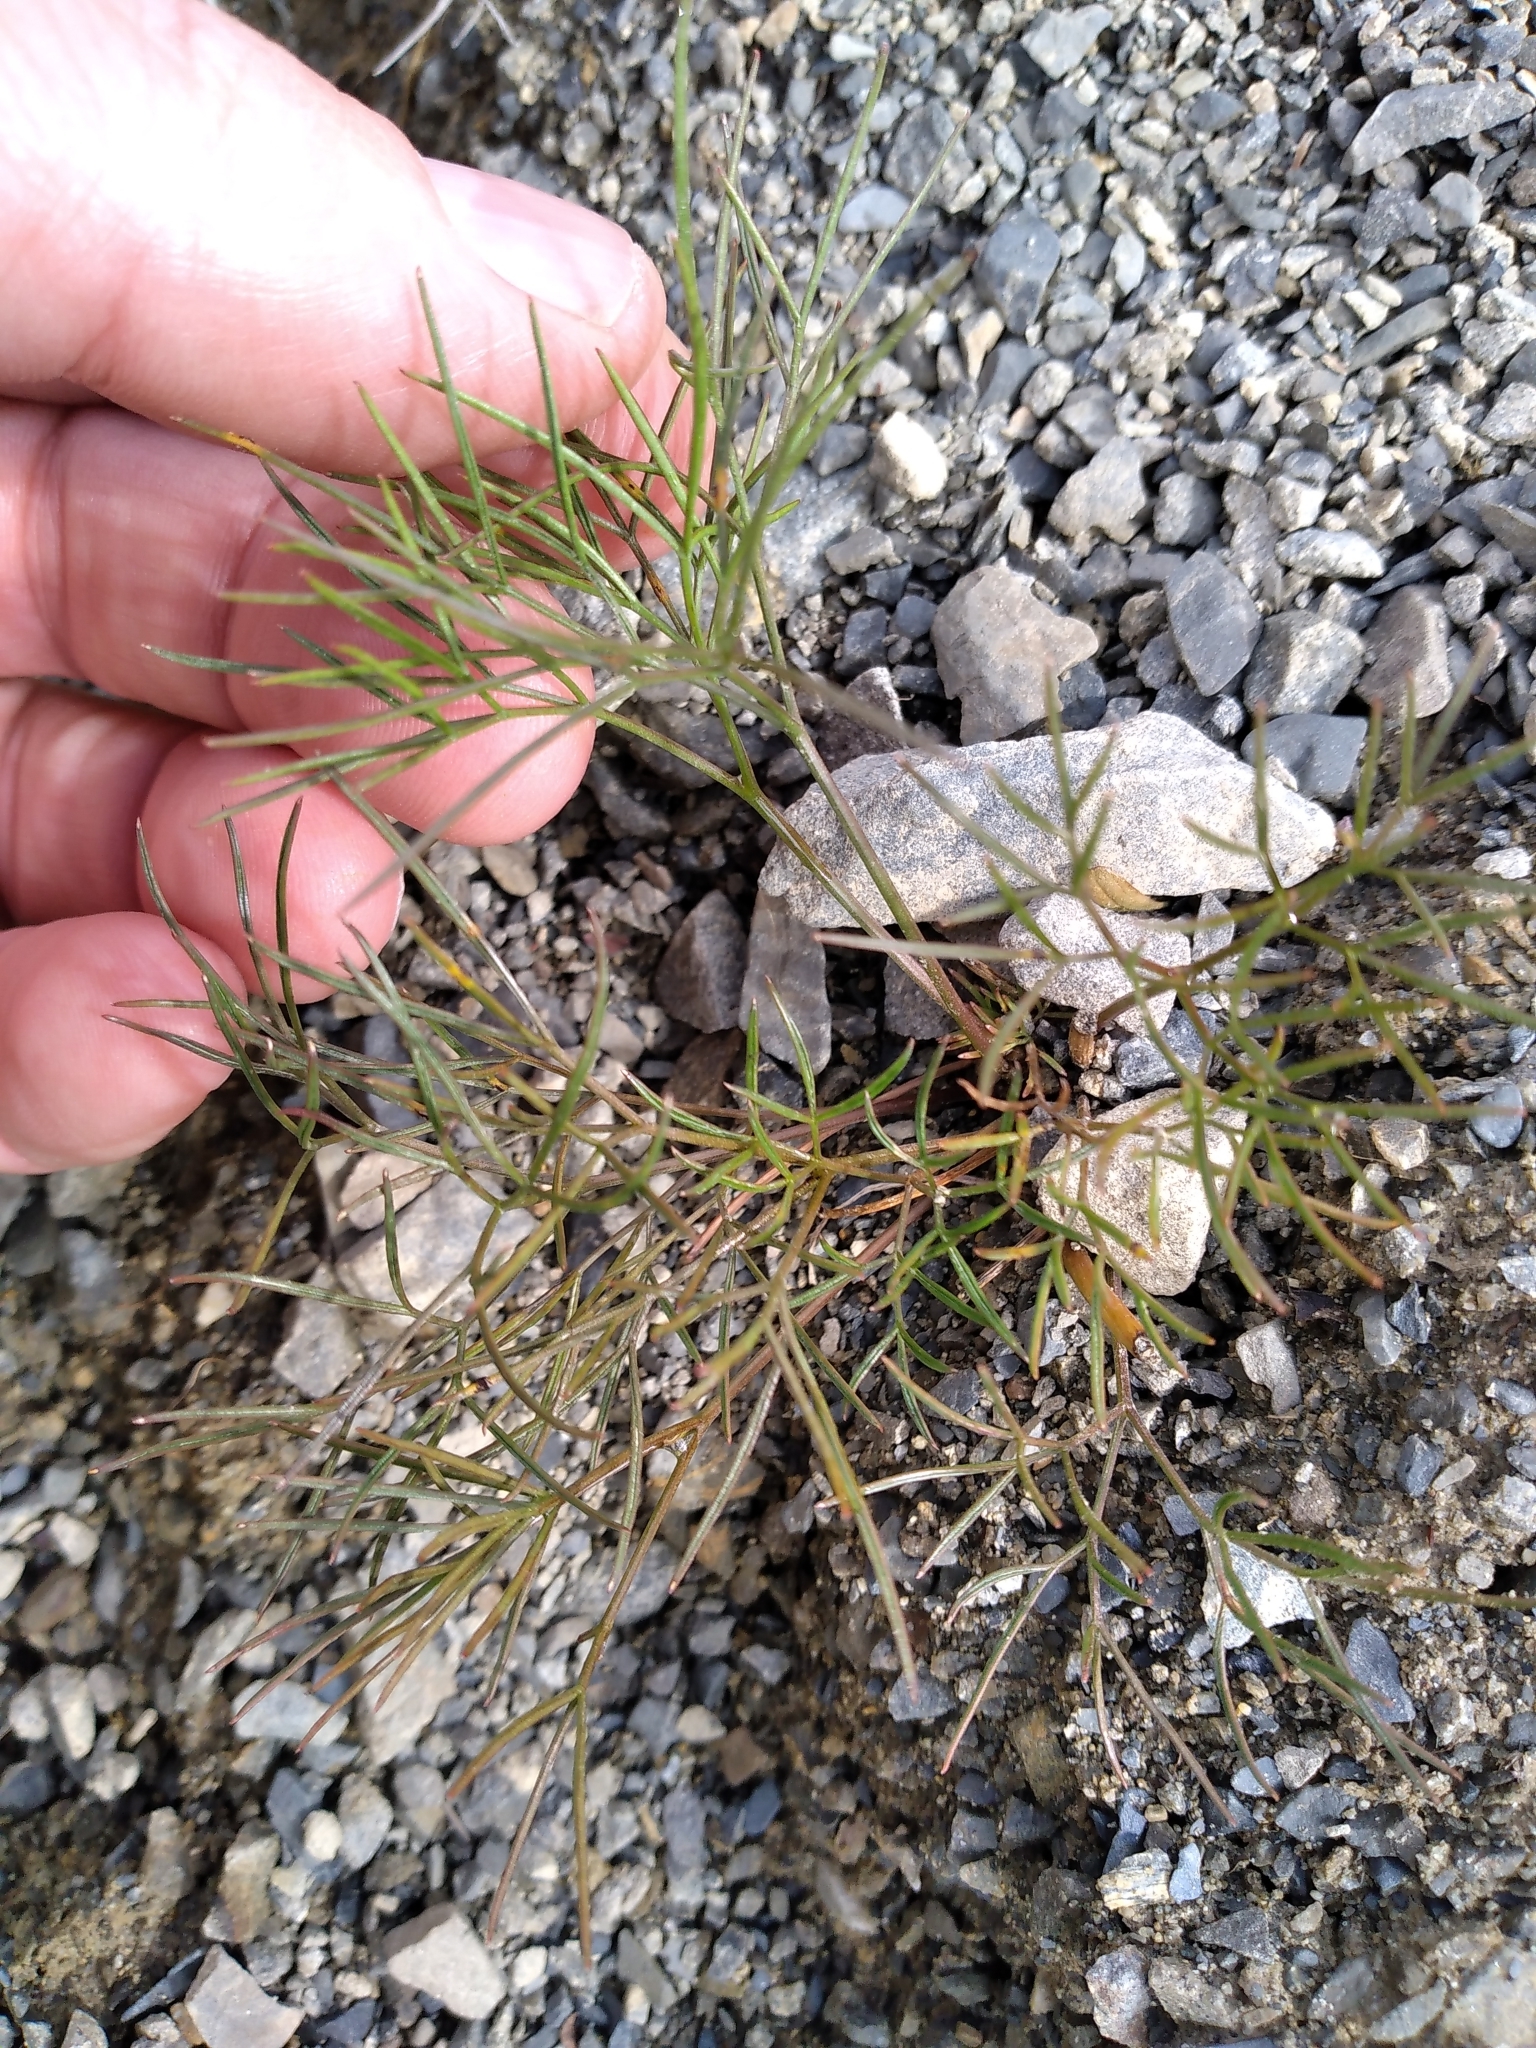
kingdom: Plantae
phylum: Tracheophyta
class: Magnoliopsida
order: Apiales
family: Apiaceae
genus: Anisotome
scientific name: Anisotome filifolia
